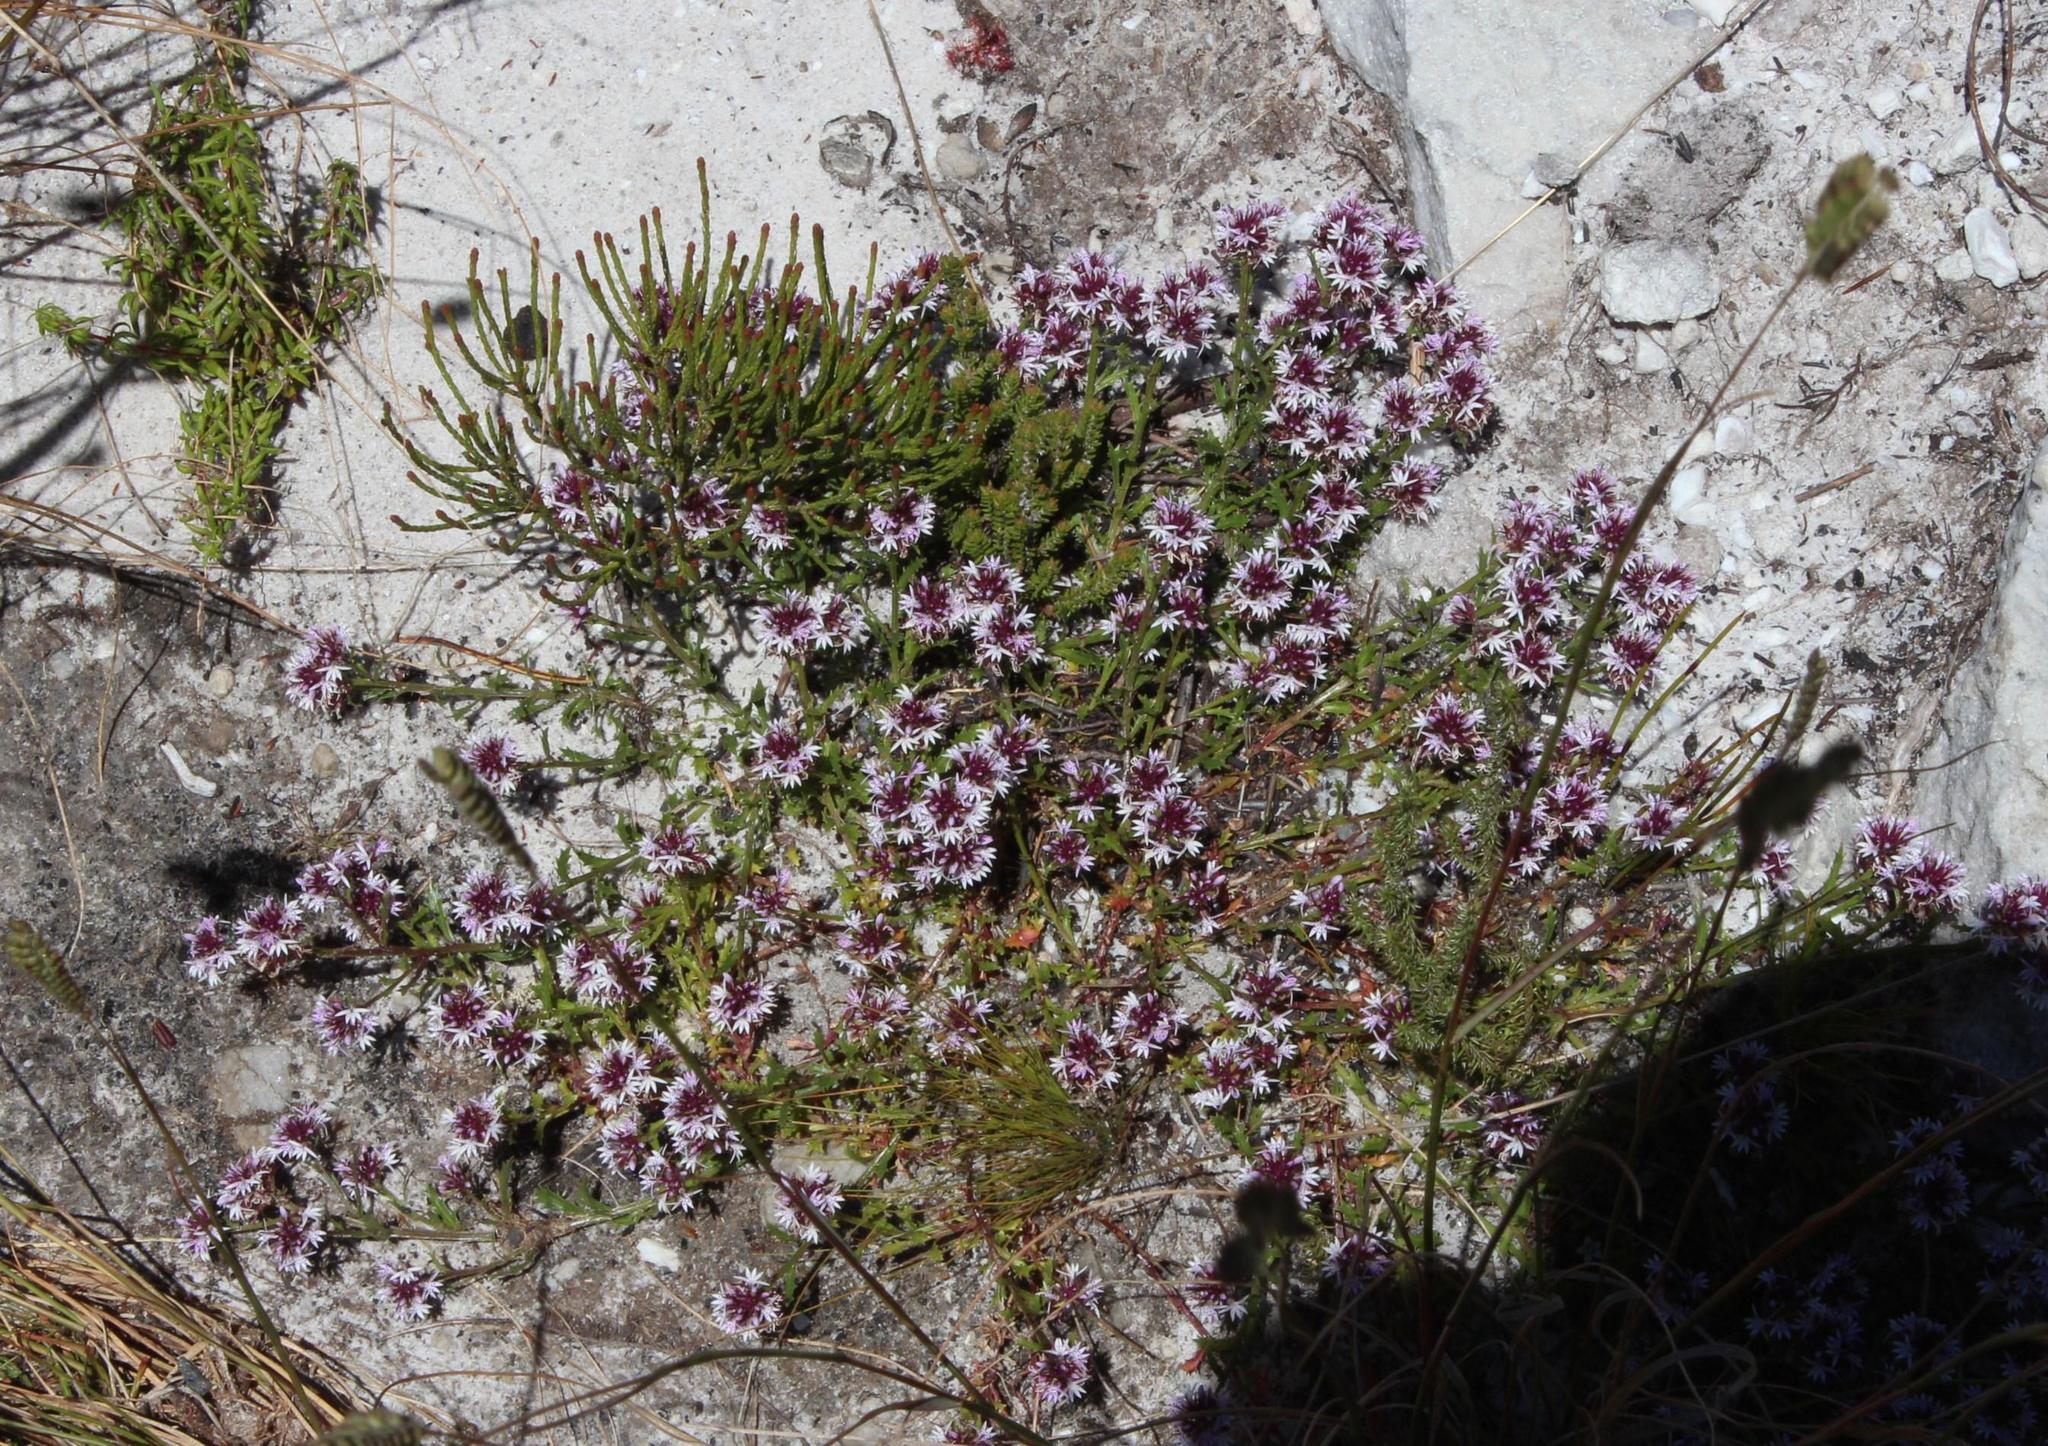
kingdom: Plantae
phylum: Tracheophyta
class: Magnoliopsida
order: Asterales
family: Campanulaceae
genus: Lobelia
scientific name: Lobelia jasionoides
